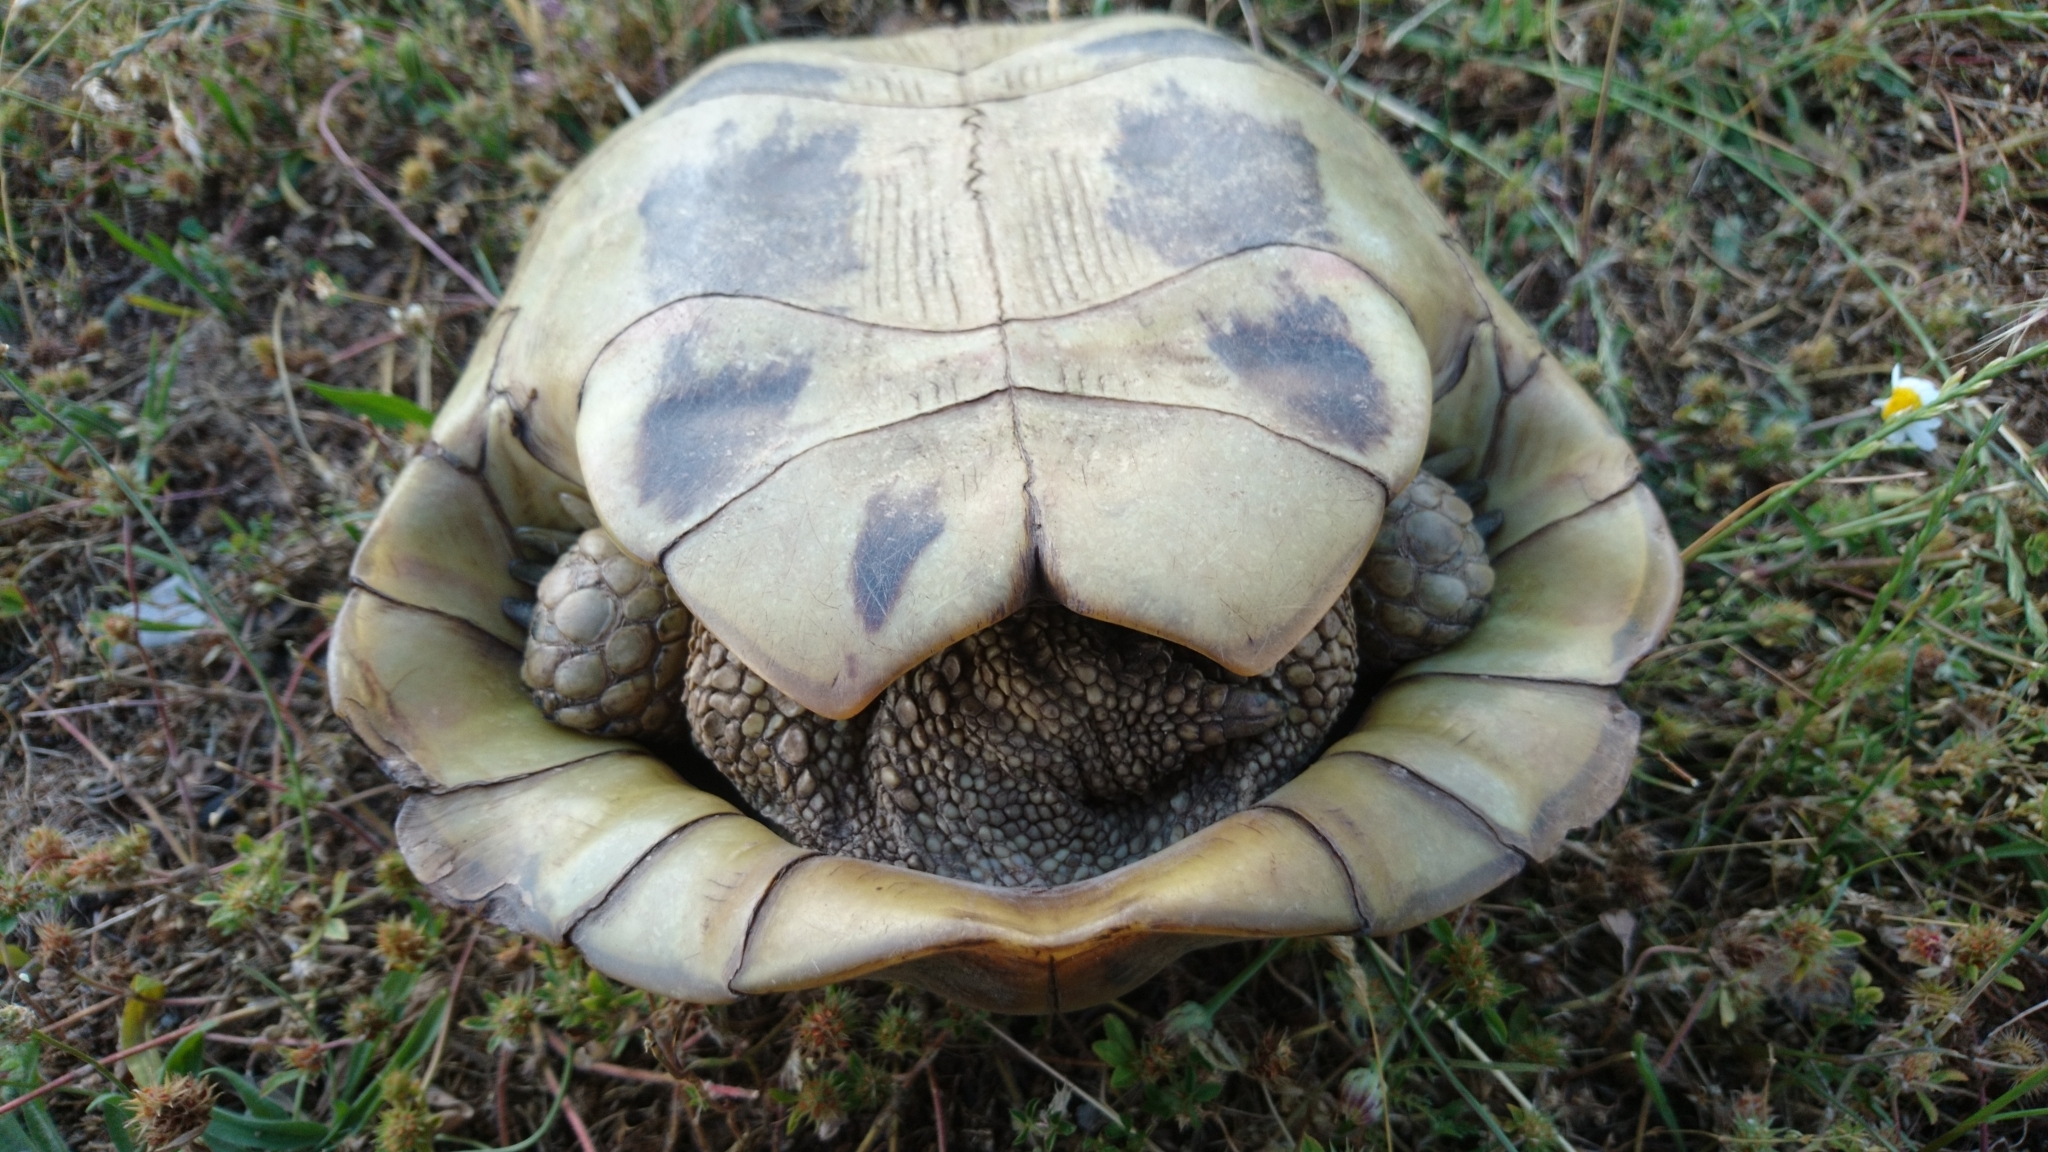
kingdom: Animalia
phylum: Chordata
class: Testudines
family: Testudinidae
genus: Testudo
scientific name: Testudo hermanni
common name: Hermann's tortoise
